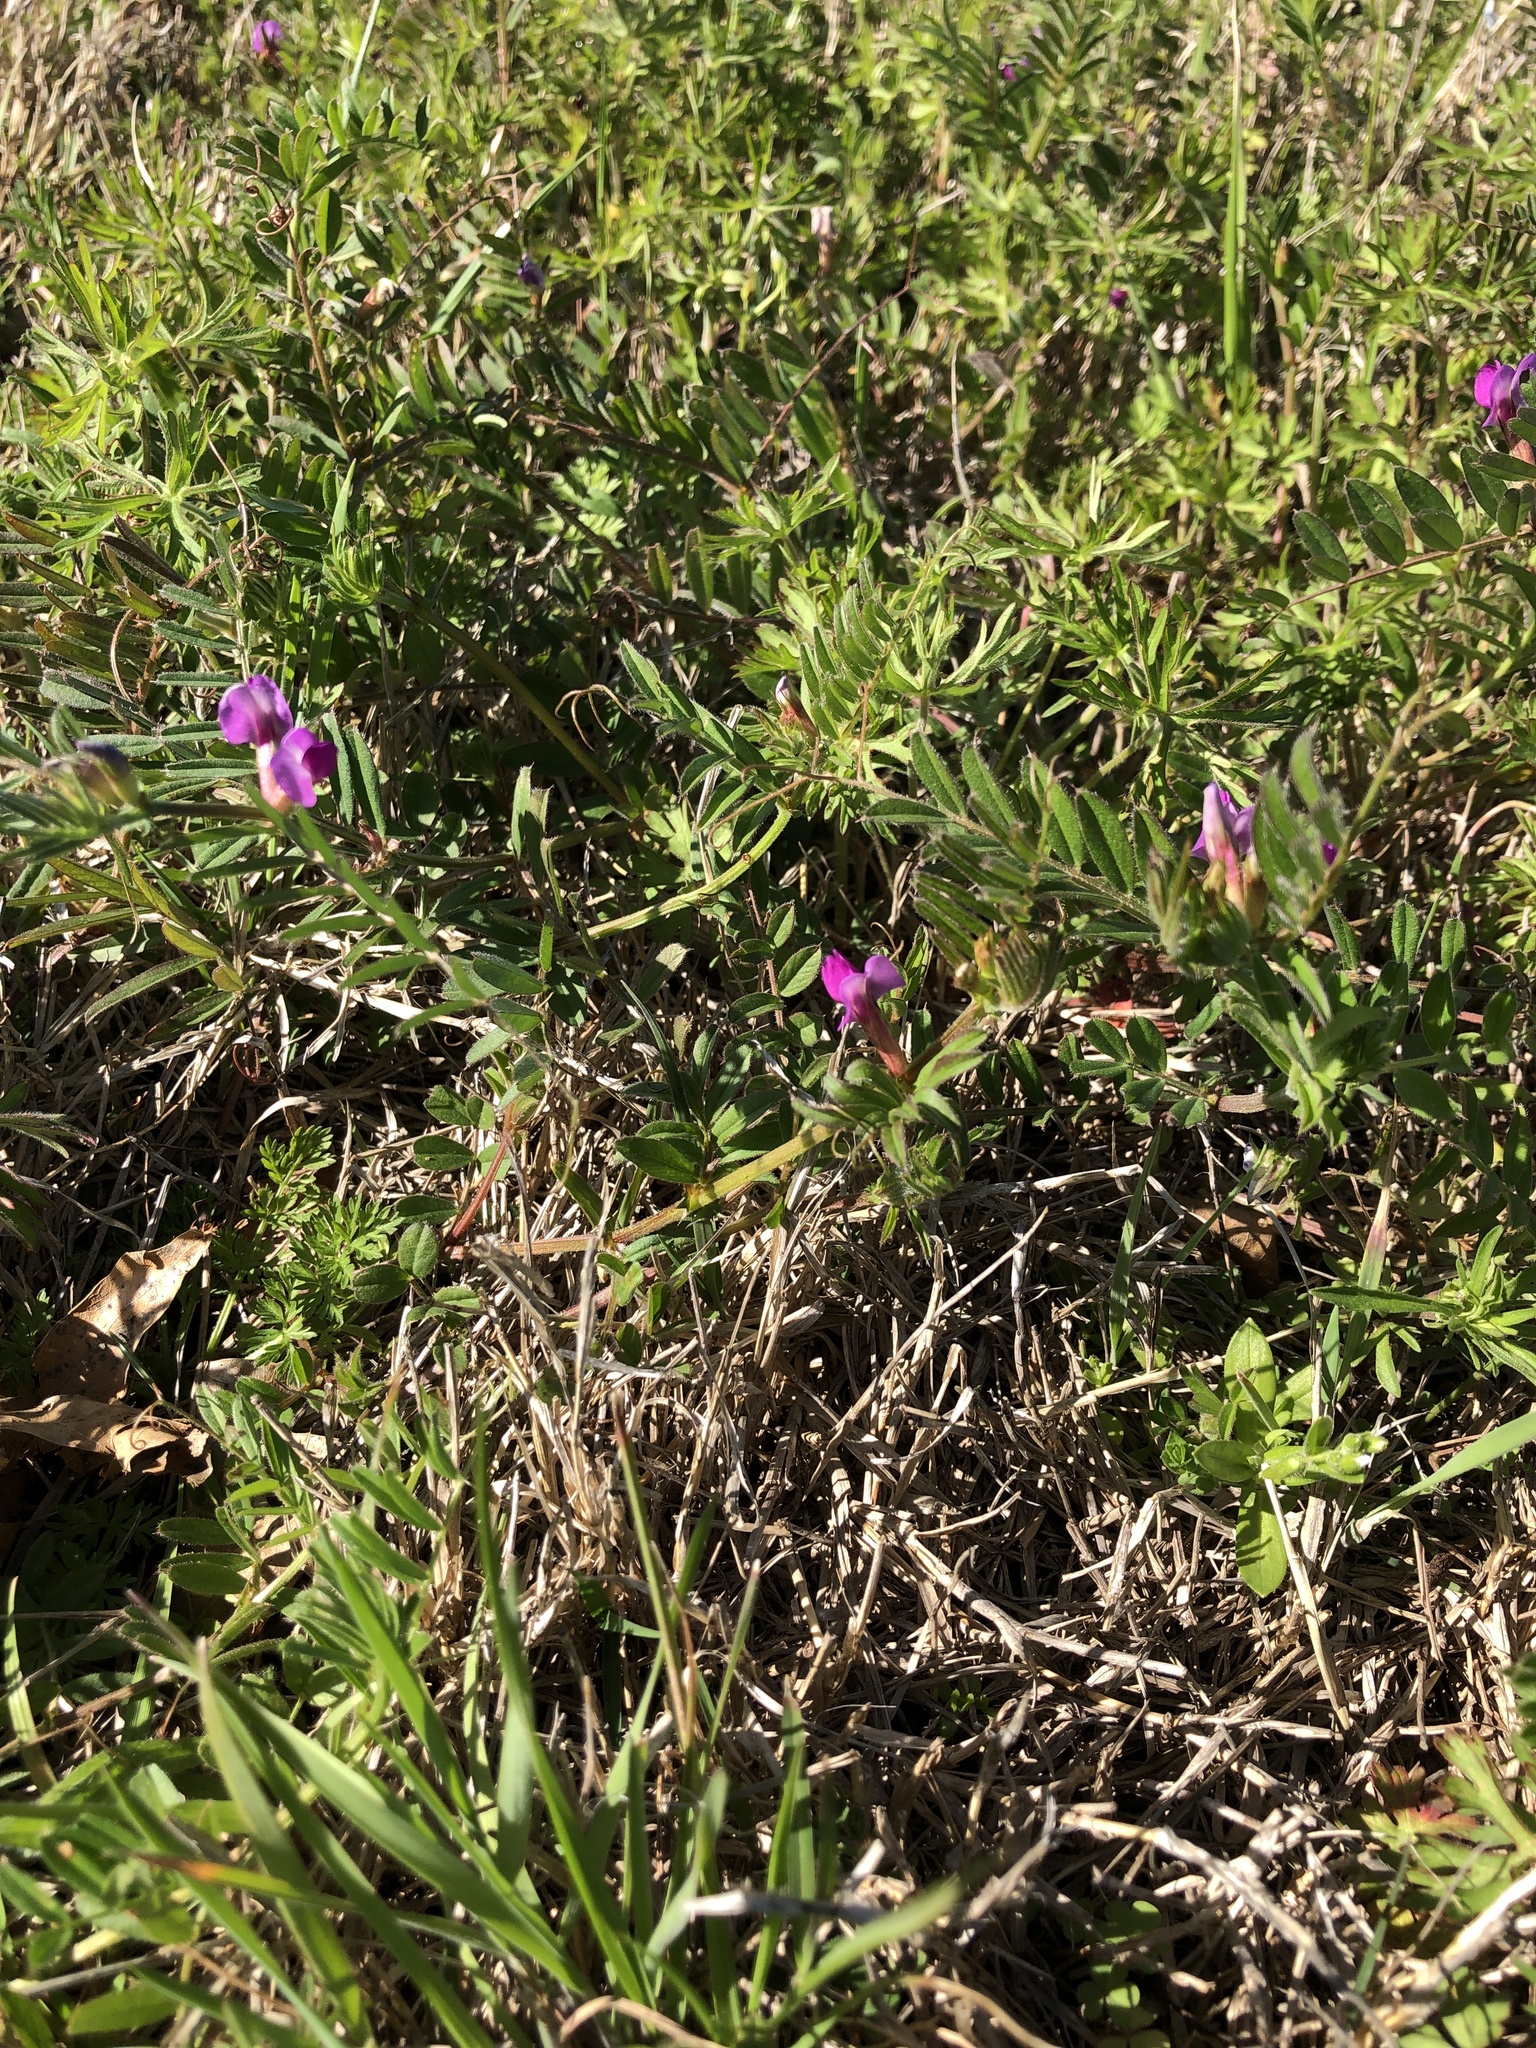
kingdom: Plantae
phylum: Tracheophyta
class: Magnoliopsida
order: Fabales
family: Fabaceae
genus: Vicia
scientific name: Vicia sativa
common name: Garden vetch
